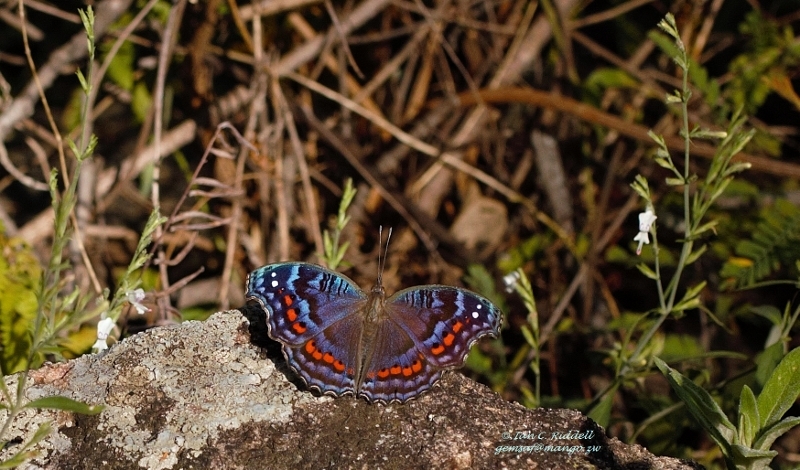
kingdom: Animalia
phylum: Arthropoda
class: Insecta
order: Lepidoptera
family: Nymphalidae
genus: Precis
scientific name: Precis octavia
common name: Gaudy commodore
